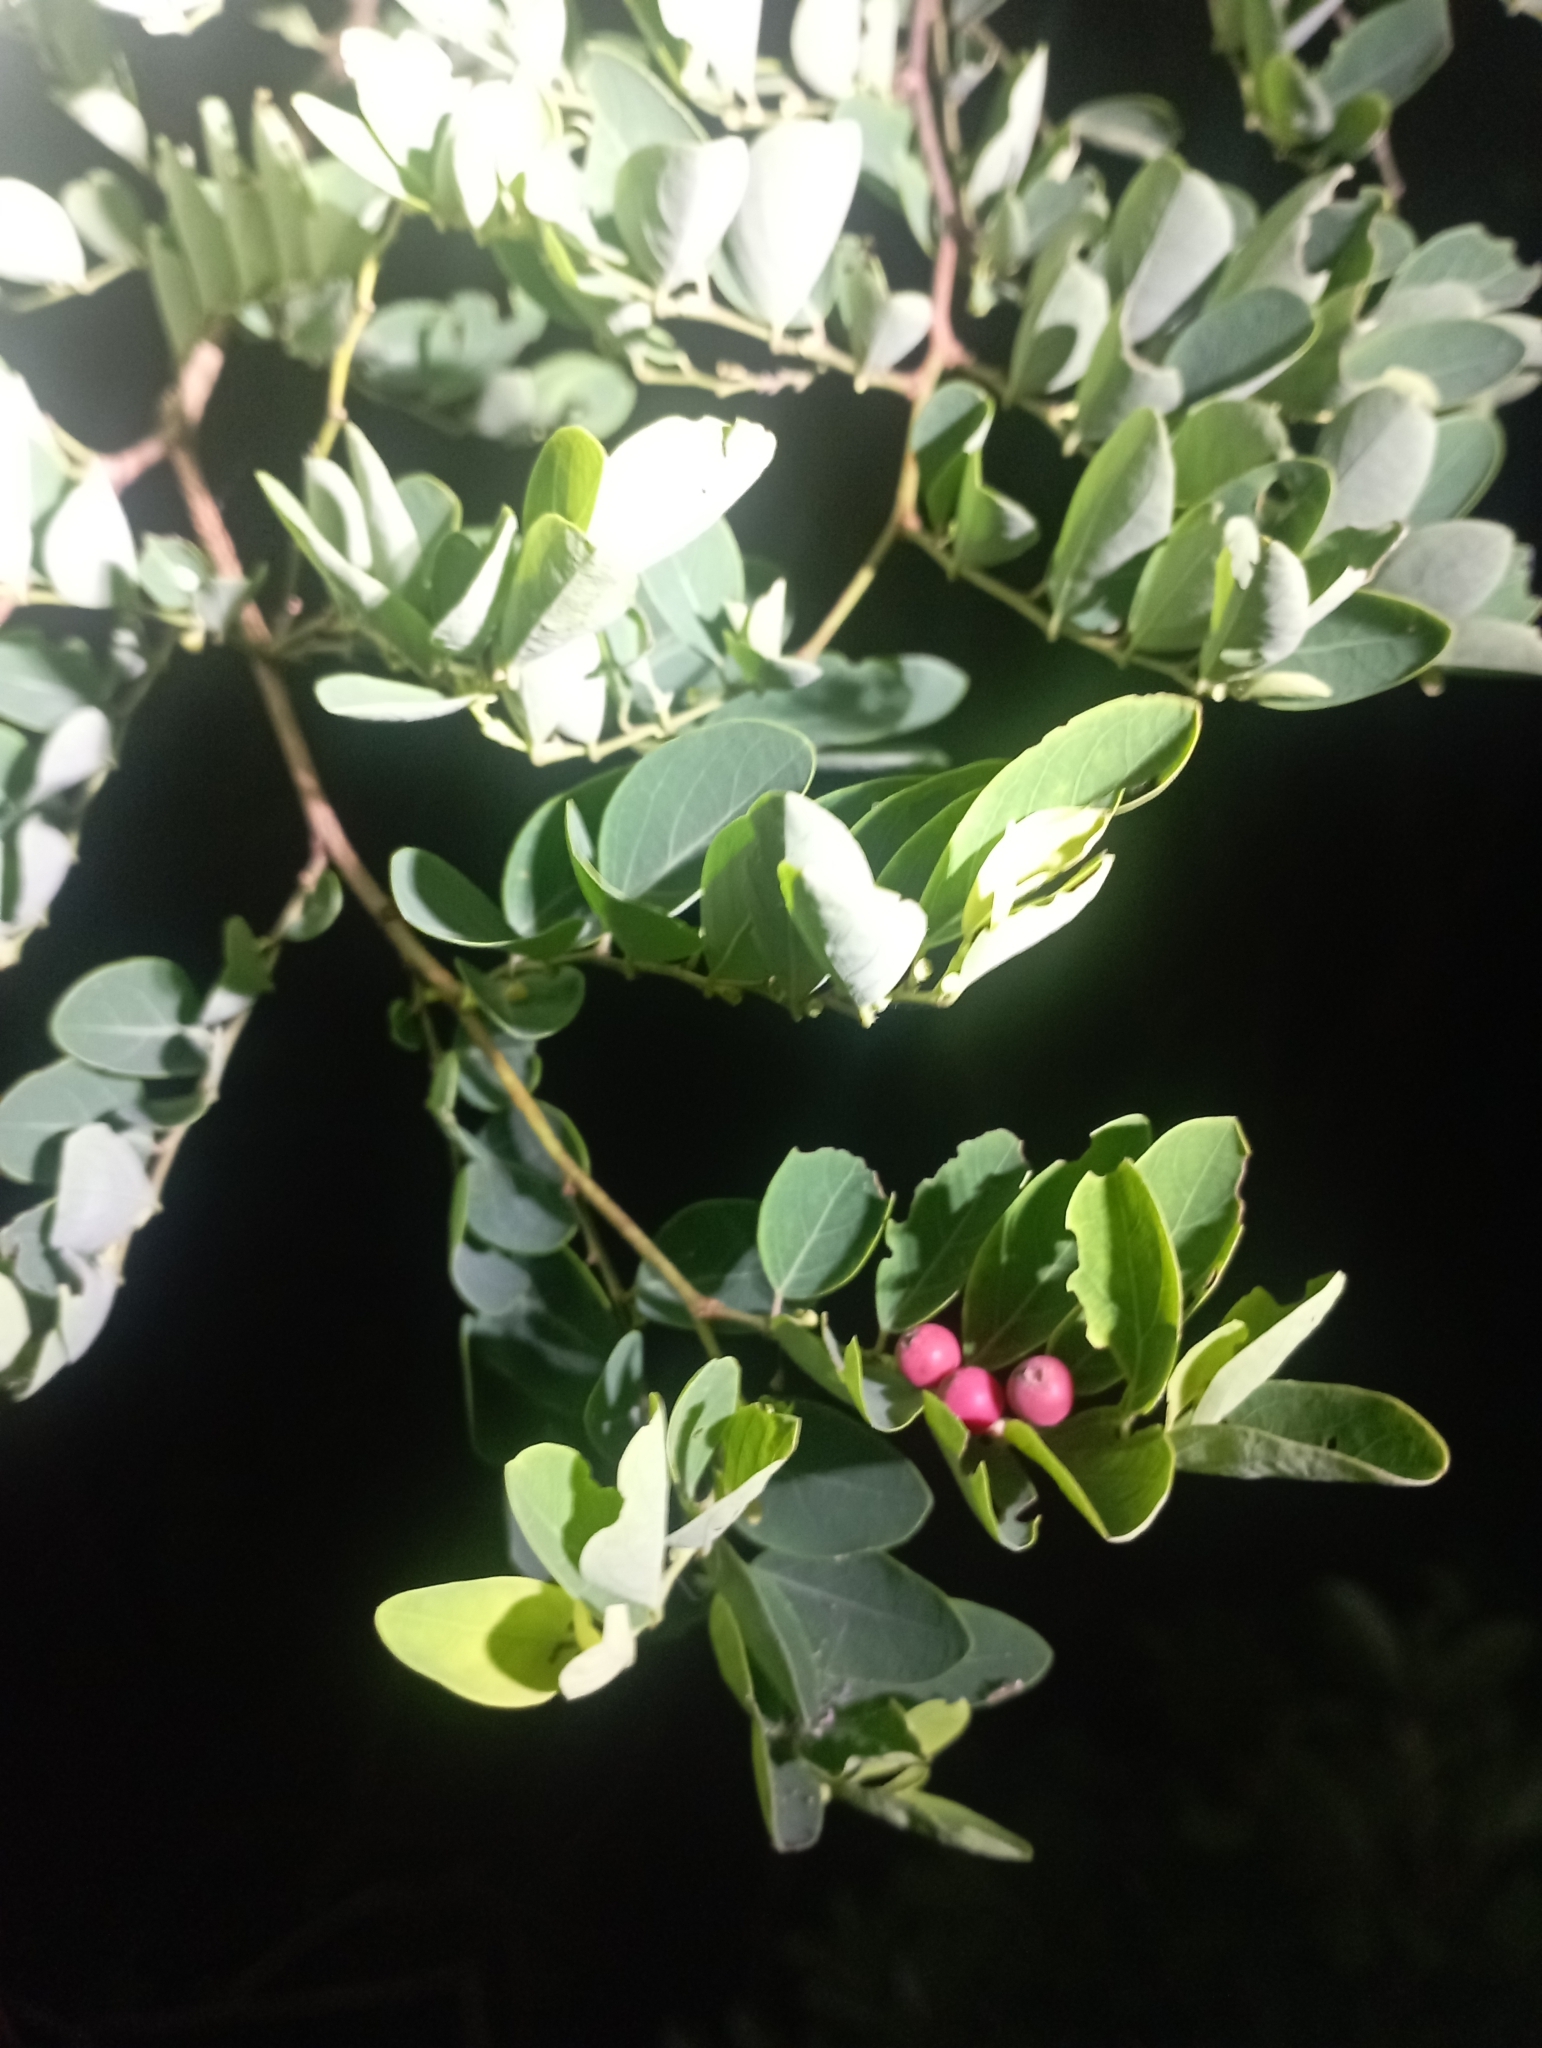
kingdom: Plantae
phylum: Tracheophyta
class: Magnoliopsida
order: Malpighiales
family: Phyllanthaceae
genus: Breynia
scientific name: Breynia vitis-idaea
